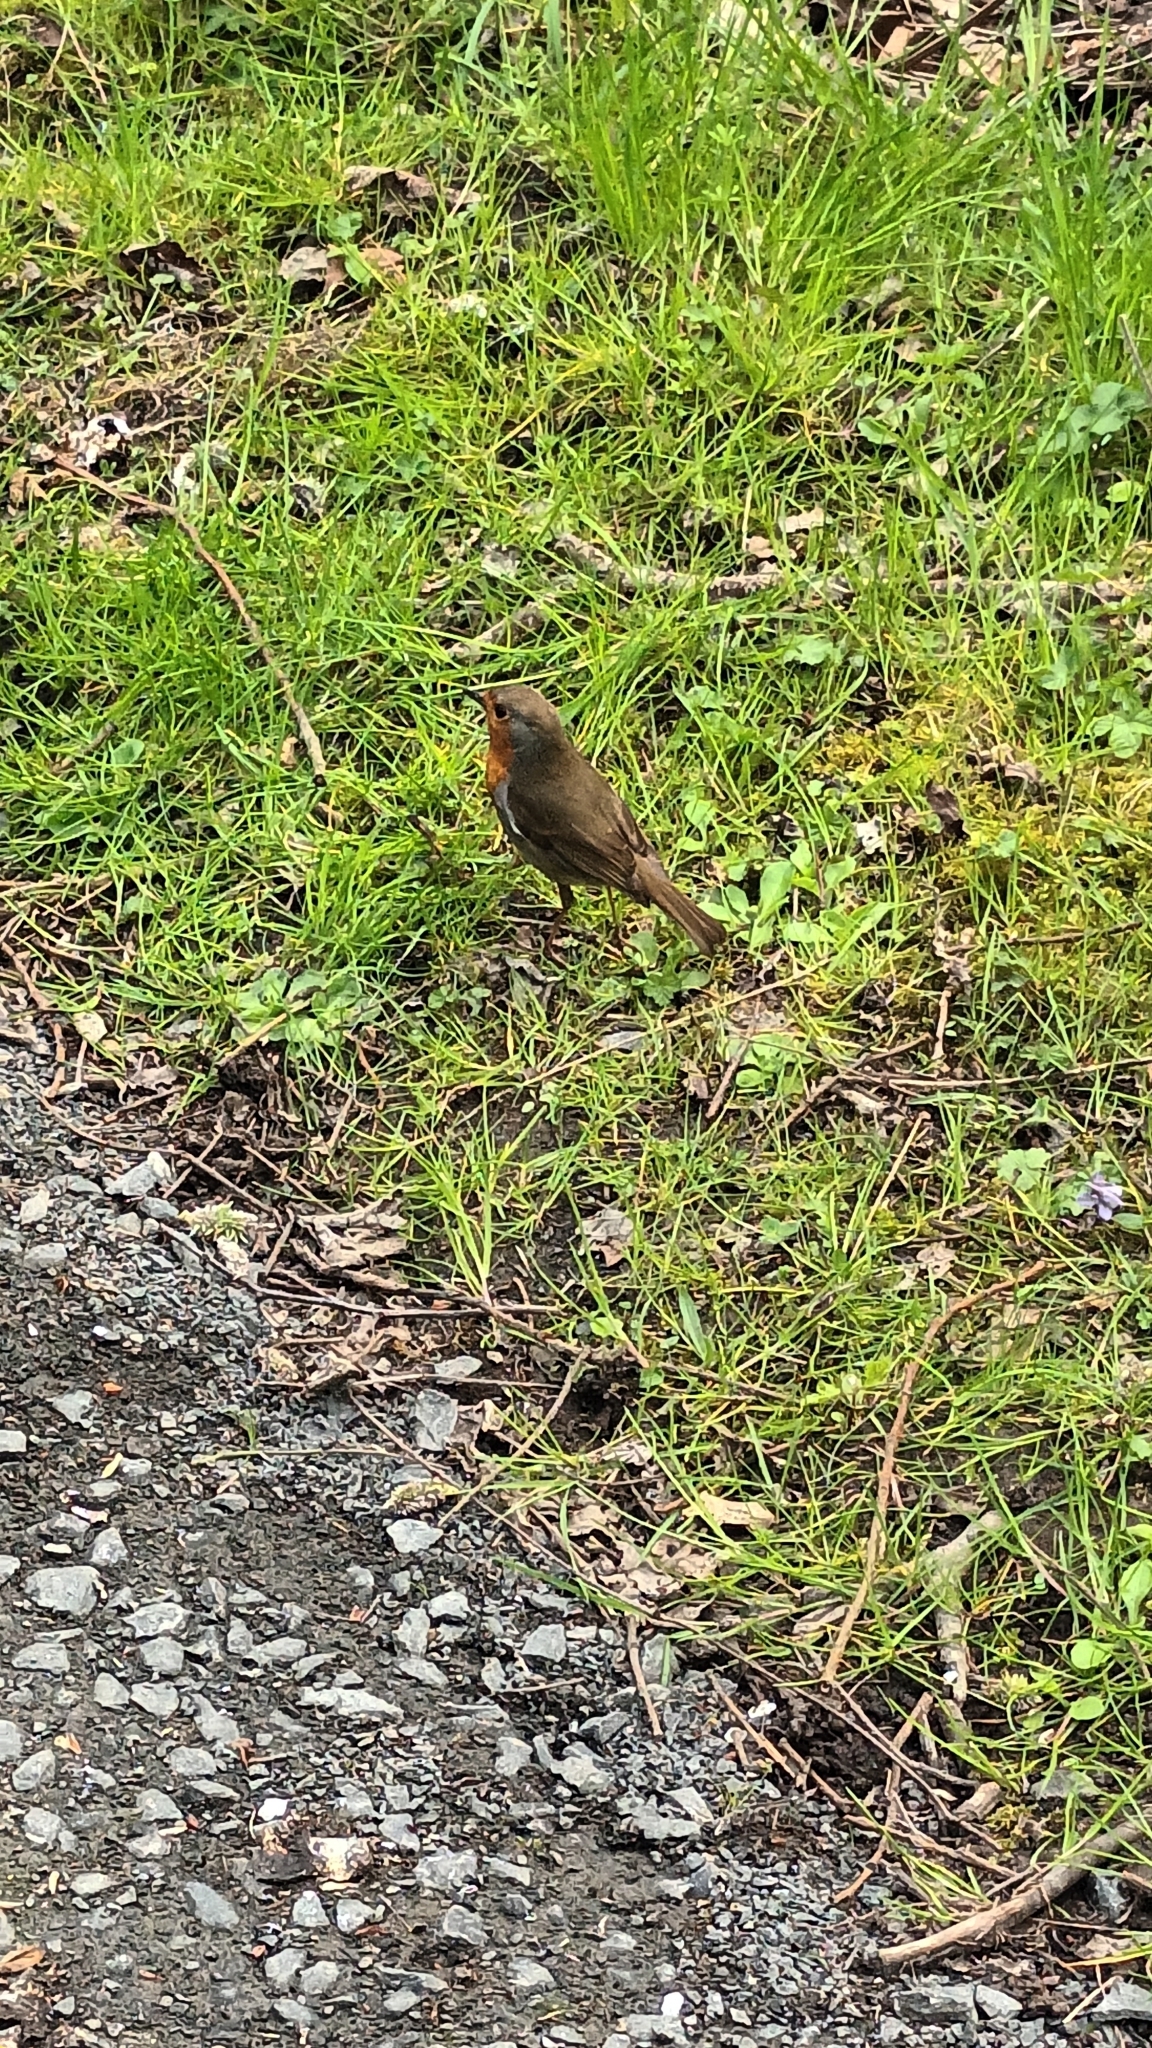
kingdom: Animalia
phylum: Chordata
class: Aves
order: Passeriformes
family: Muscicapidae
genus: Erithacus
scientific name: Erithacus rubecula
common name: European robin
